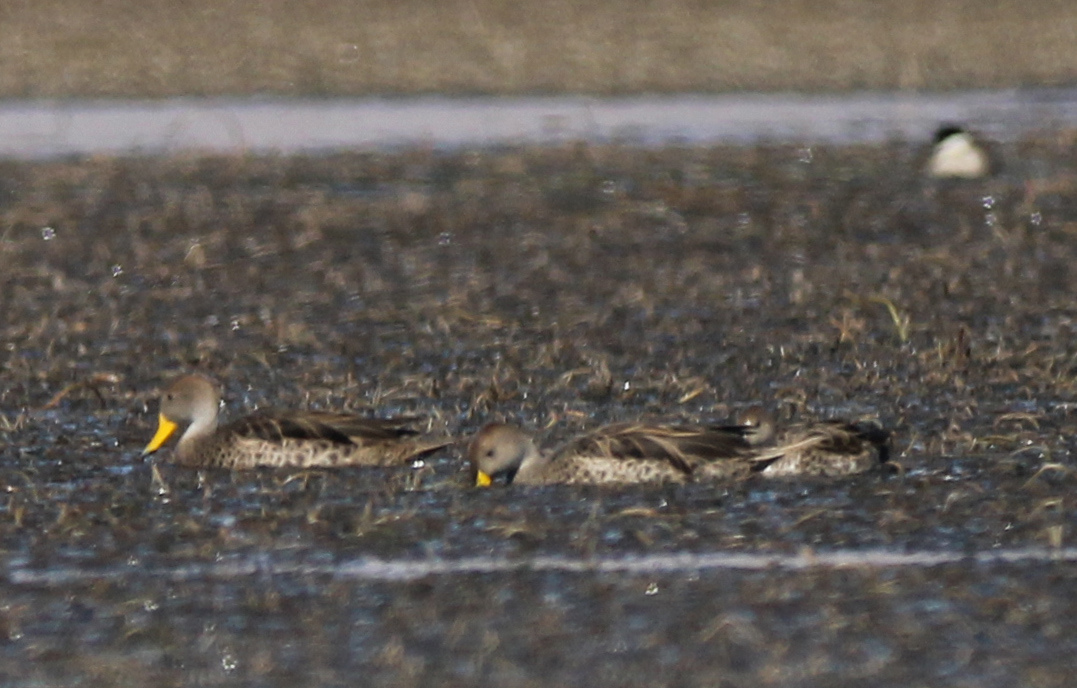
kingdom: Animalia
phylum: Chordata
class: Aves
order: Anseriformes
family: Anatidae
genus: Anas
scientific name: Anas georgica
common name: Yellow-billed pintail
